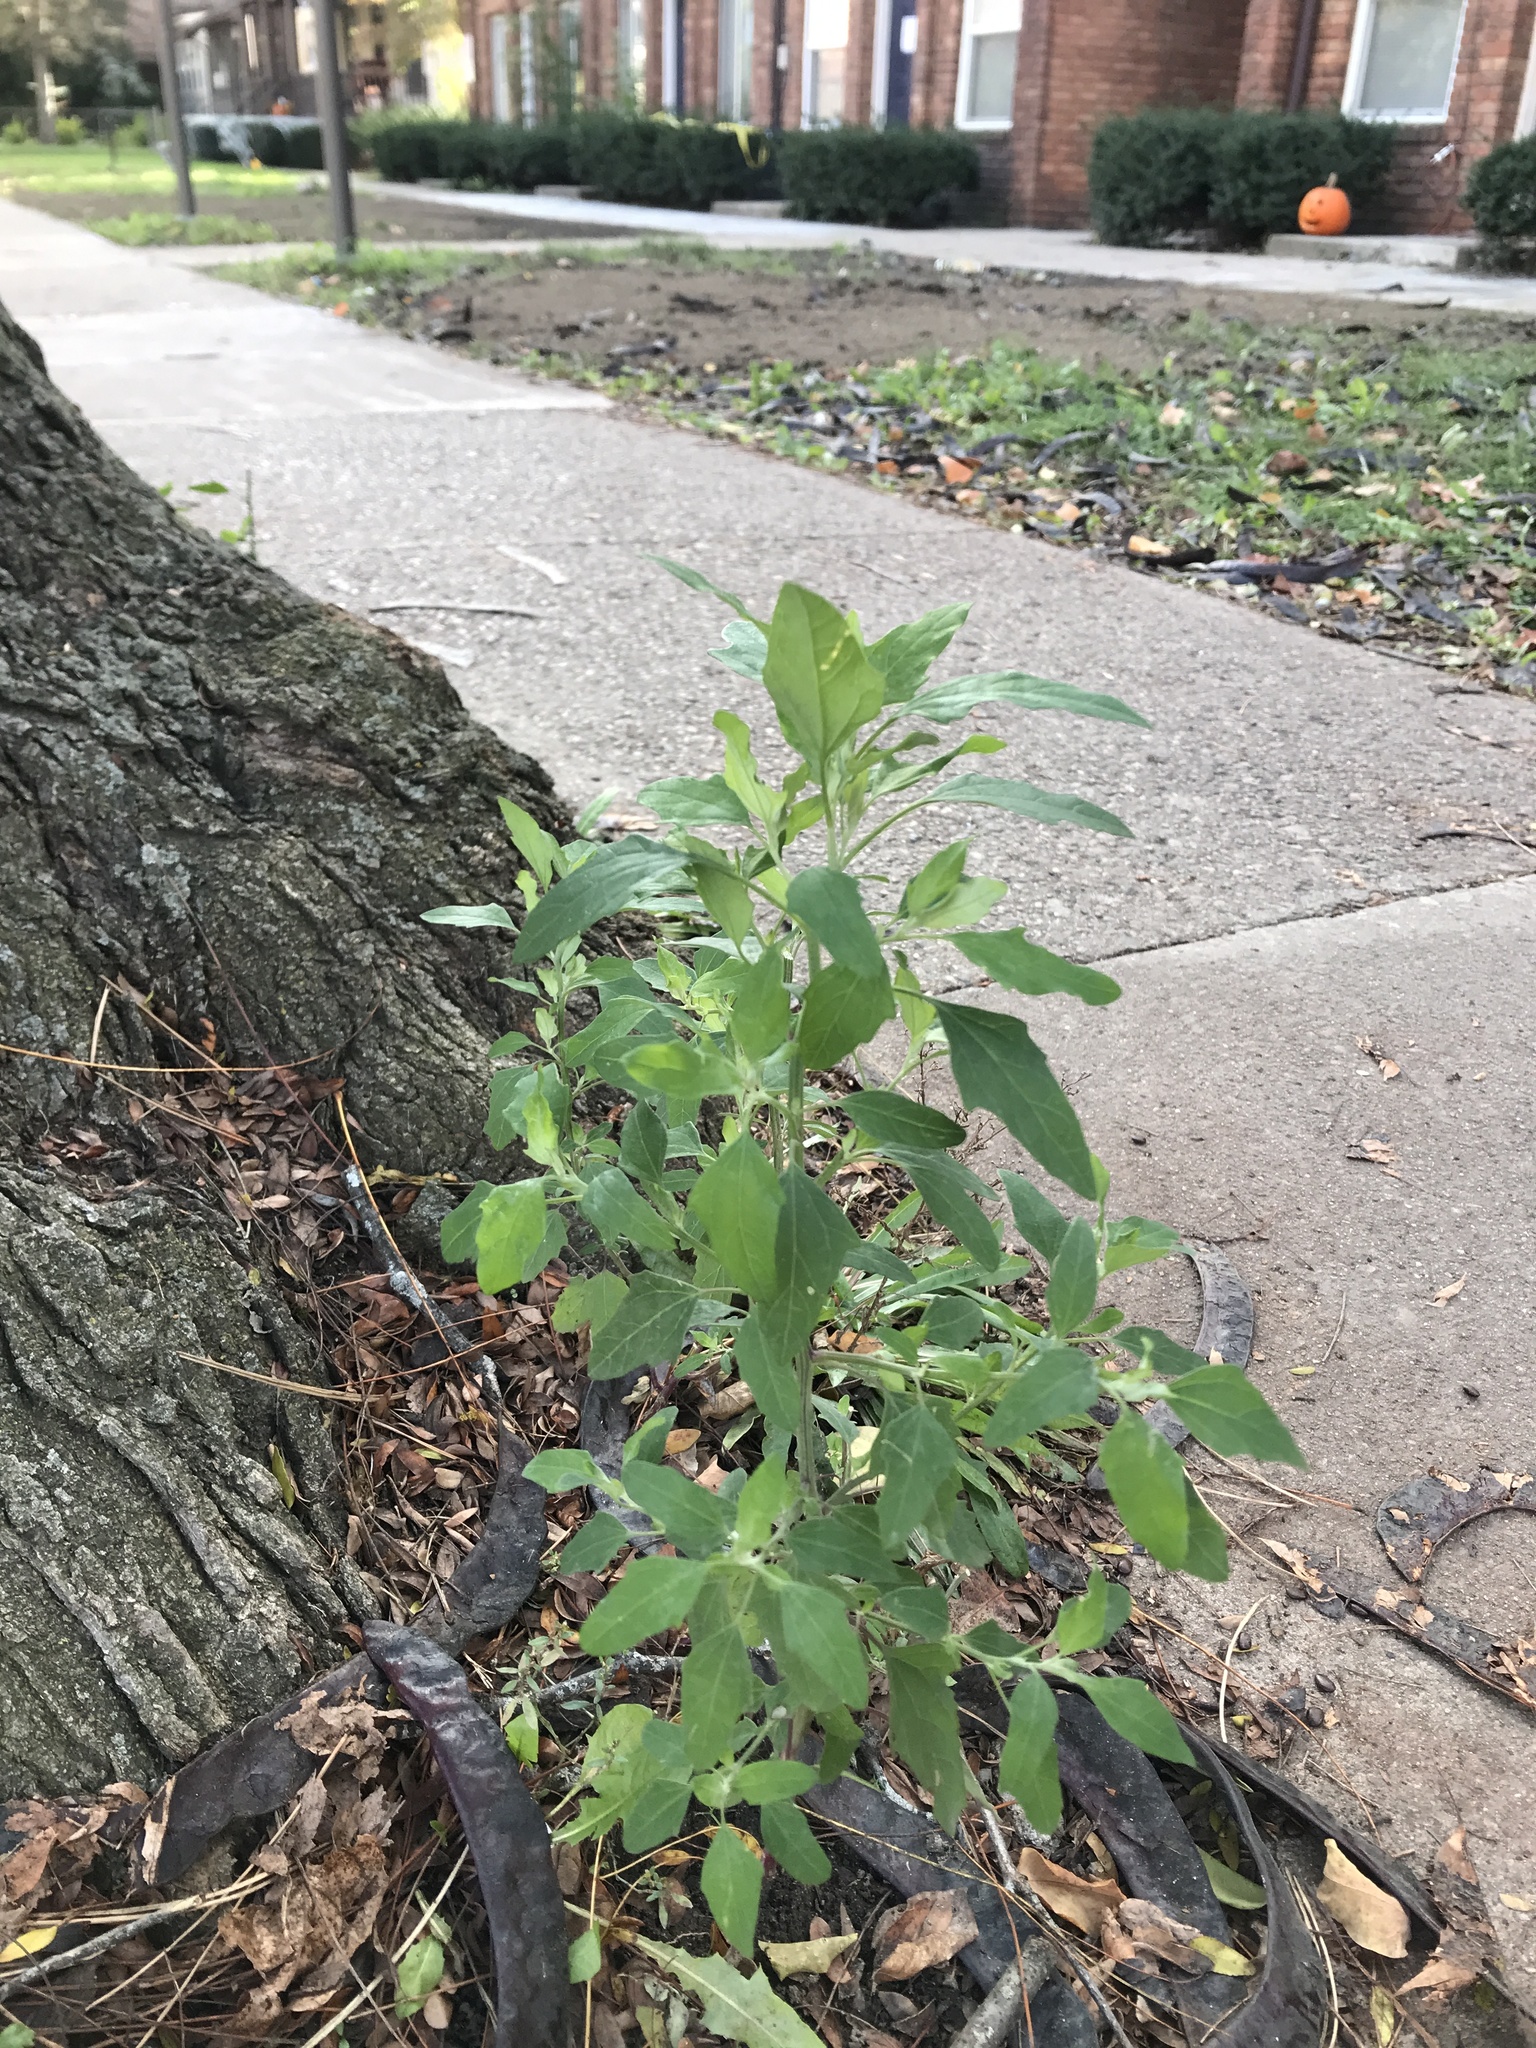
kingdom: Plantae
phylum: Tracheophyta
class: Magnoliopsida
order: Caryophyllales
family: Amaranthaceae
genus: Chenopodium
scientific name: Chenopodium album
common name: Fat-hen
